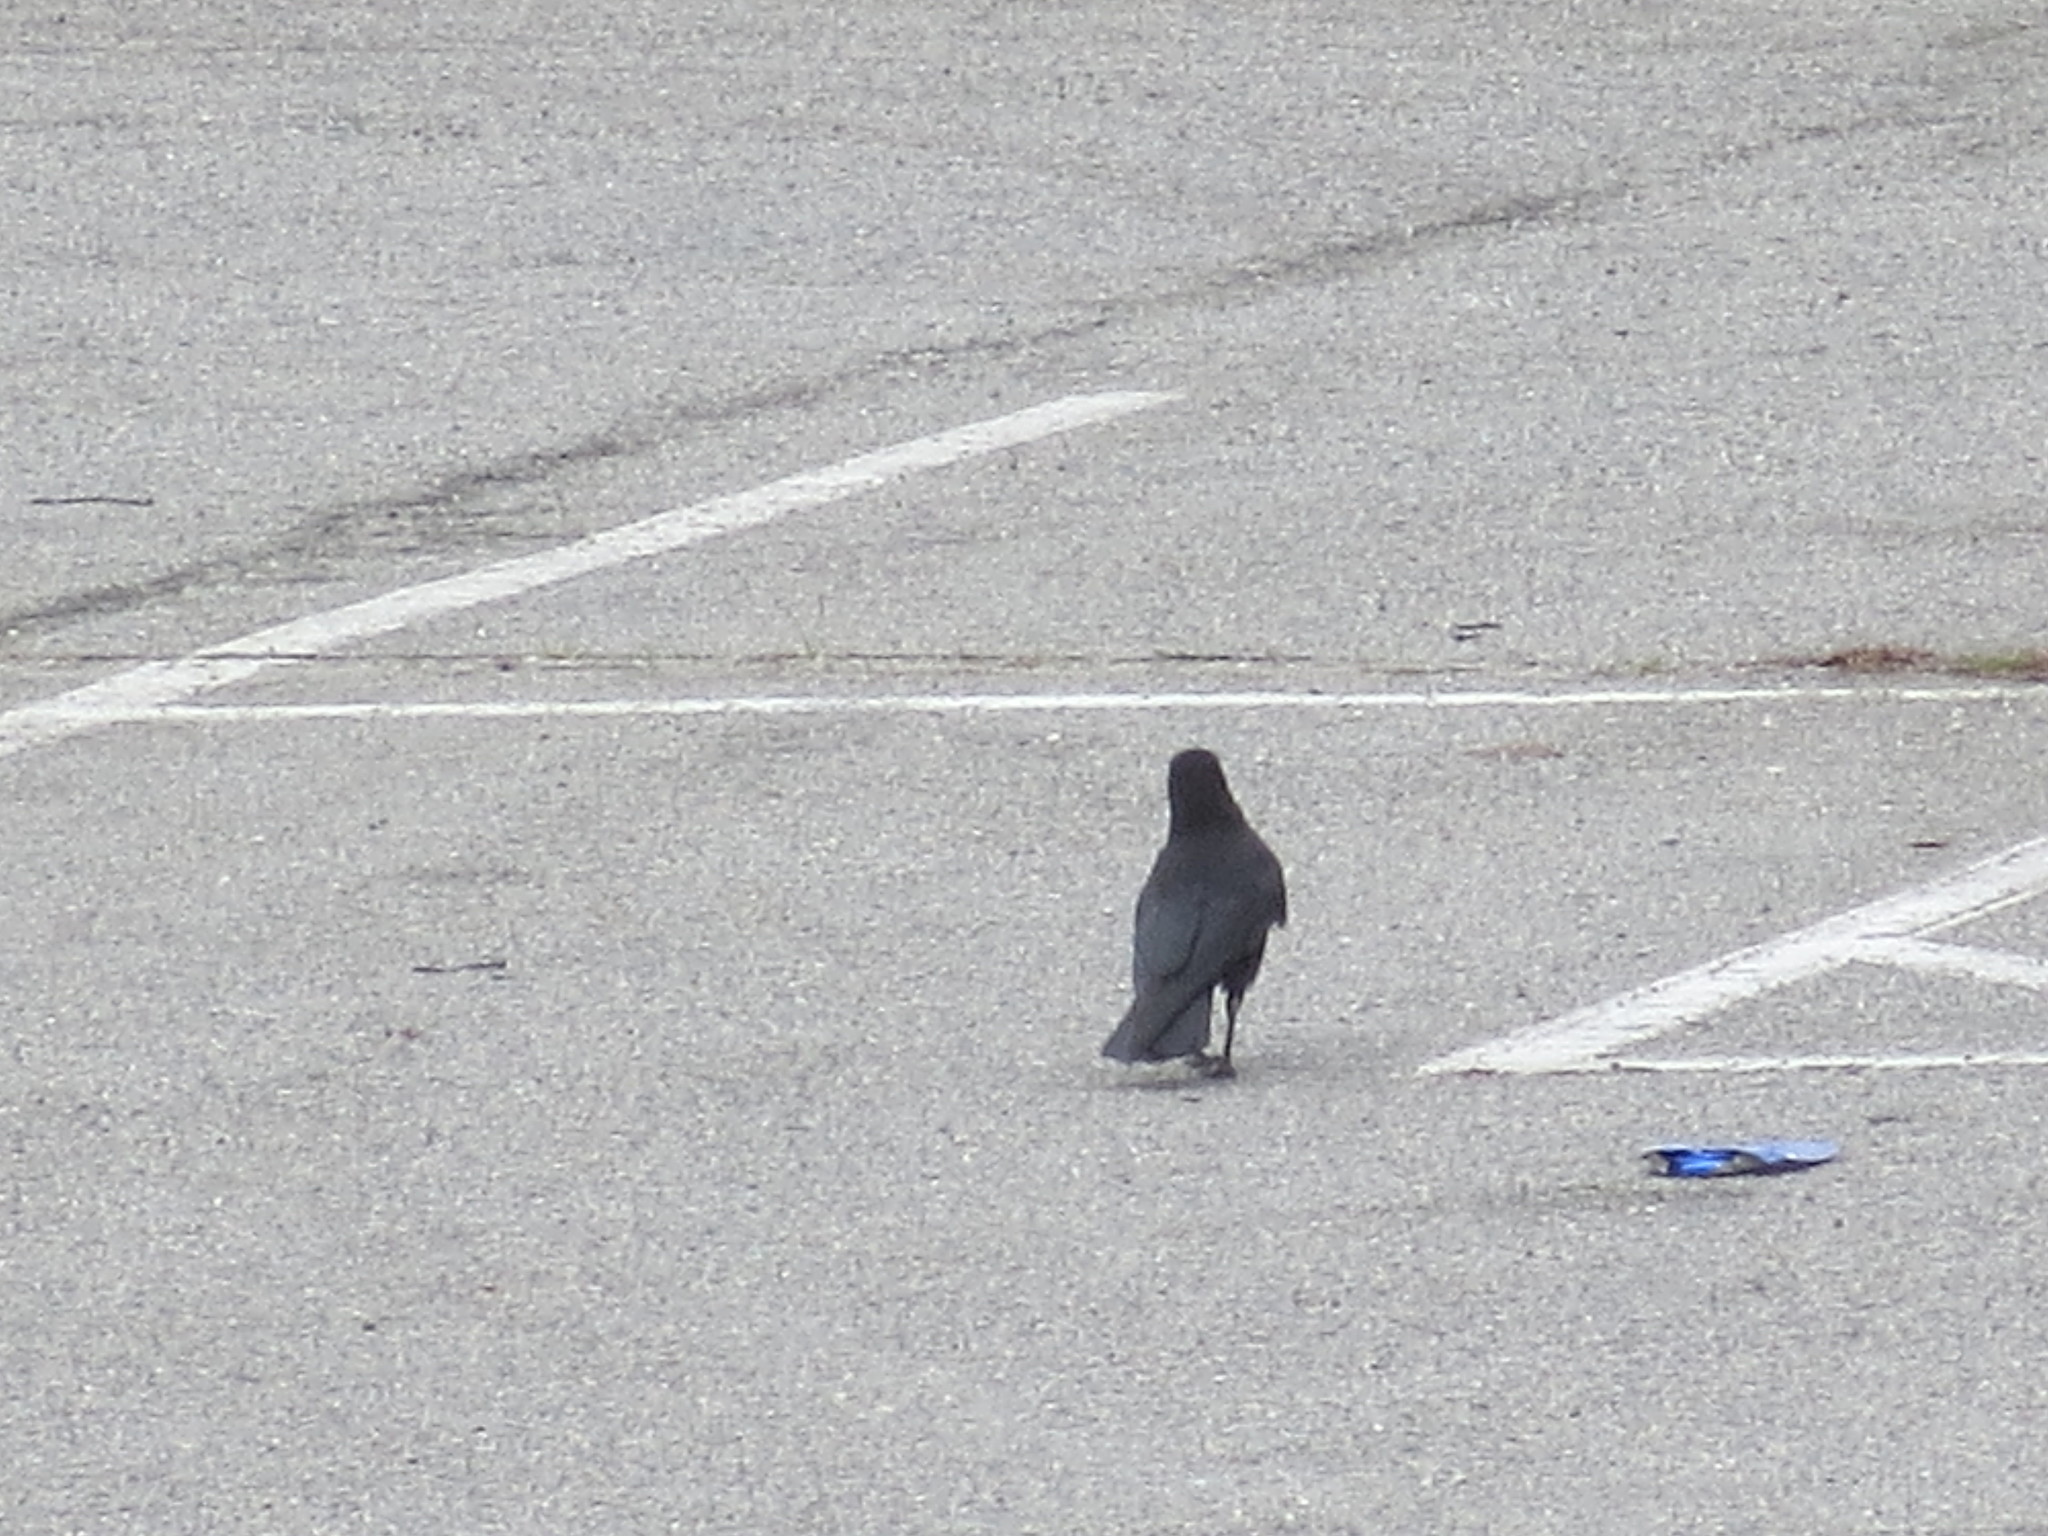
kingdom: Animalia
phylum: Chordata
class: Aves
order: Passeriformes
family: Corvidae
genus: Corvus
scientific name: Corvus brachyrhynchos
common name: American crow
